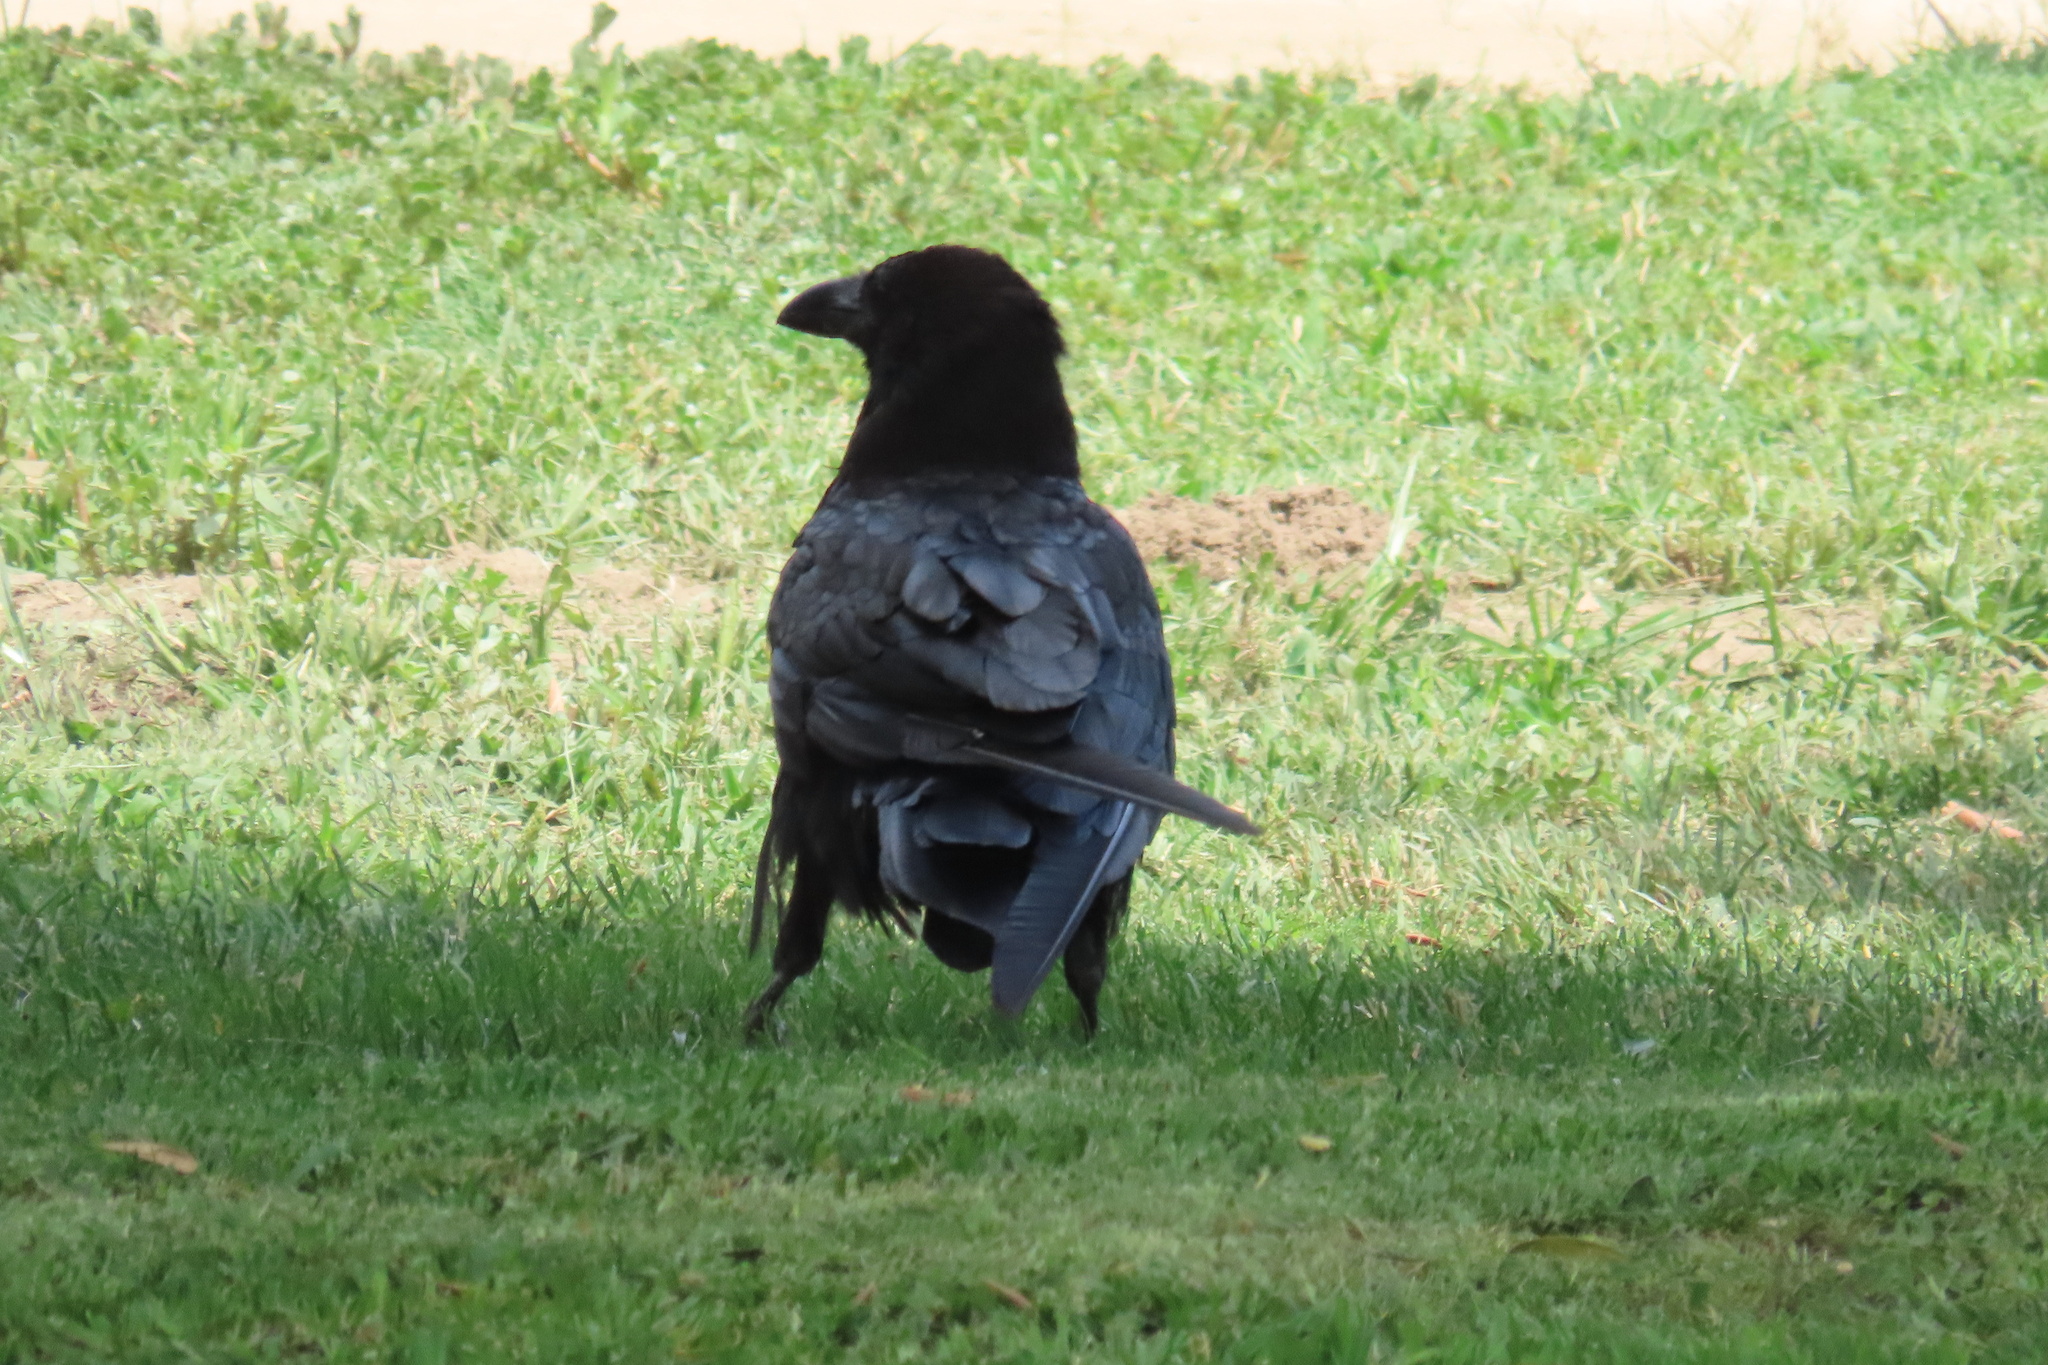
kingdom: Animalia
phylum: Chordata
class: Aves
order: Passeriformes
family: Corvidae
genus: Corvus
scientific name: Corvus corax
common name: Common raven
